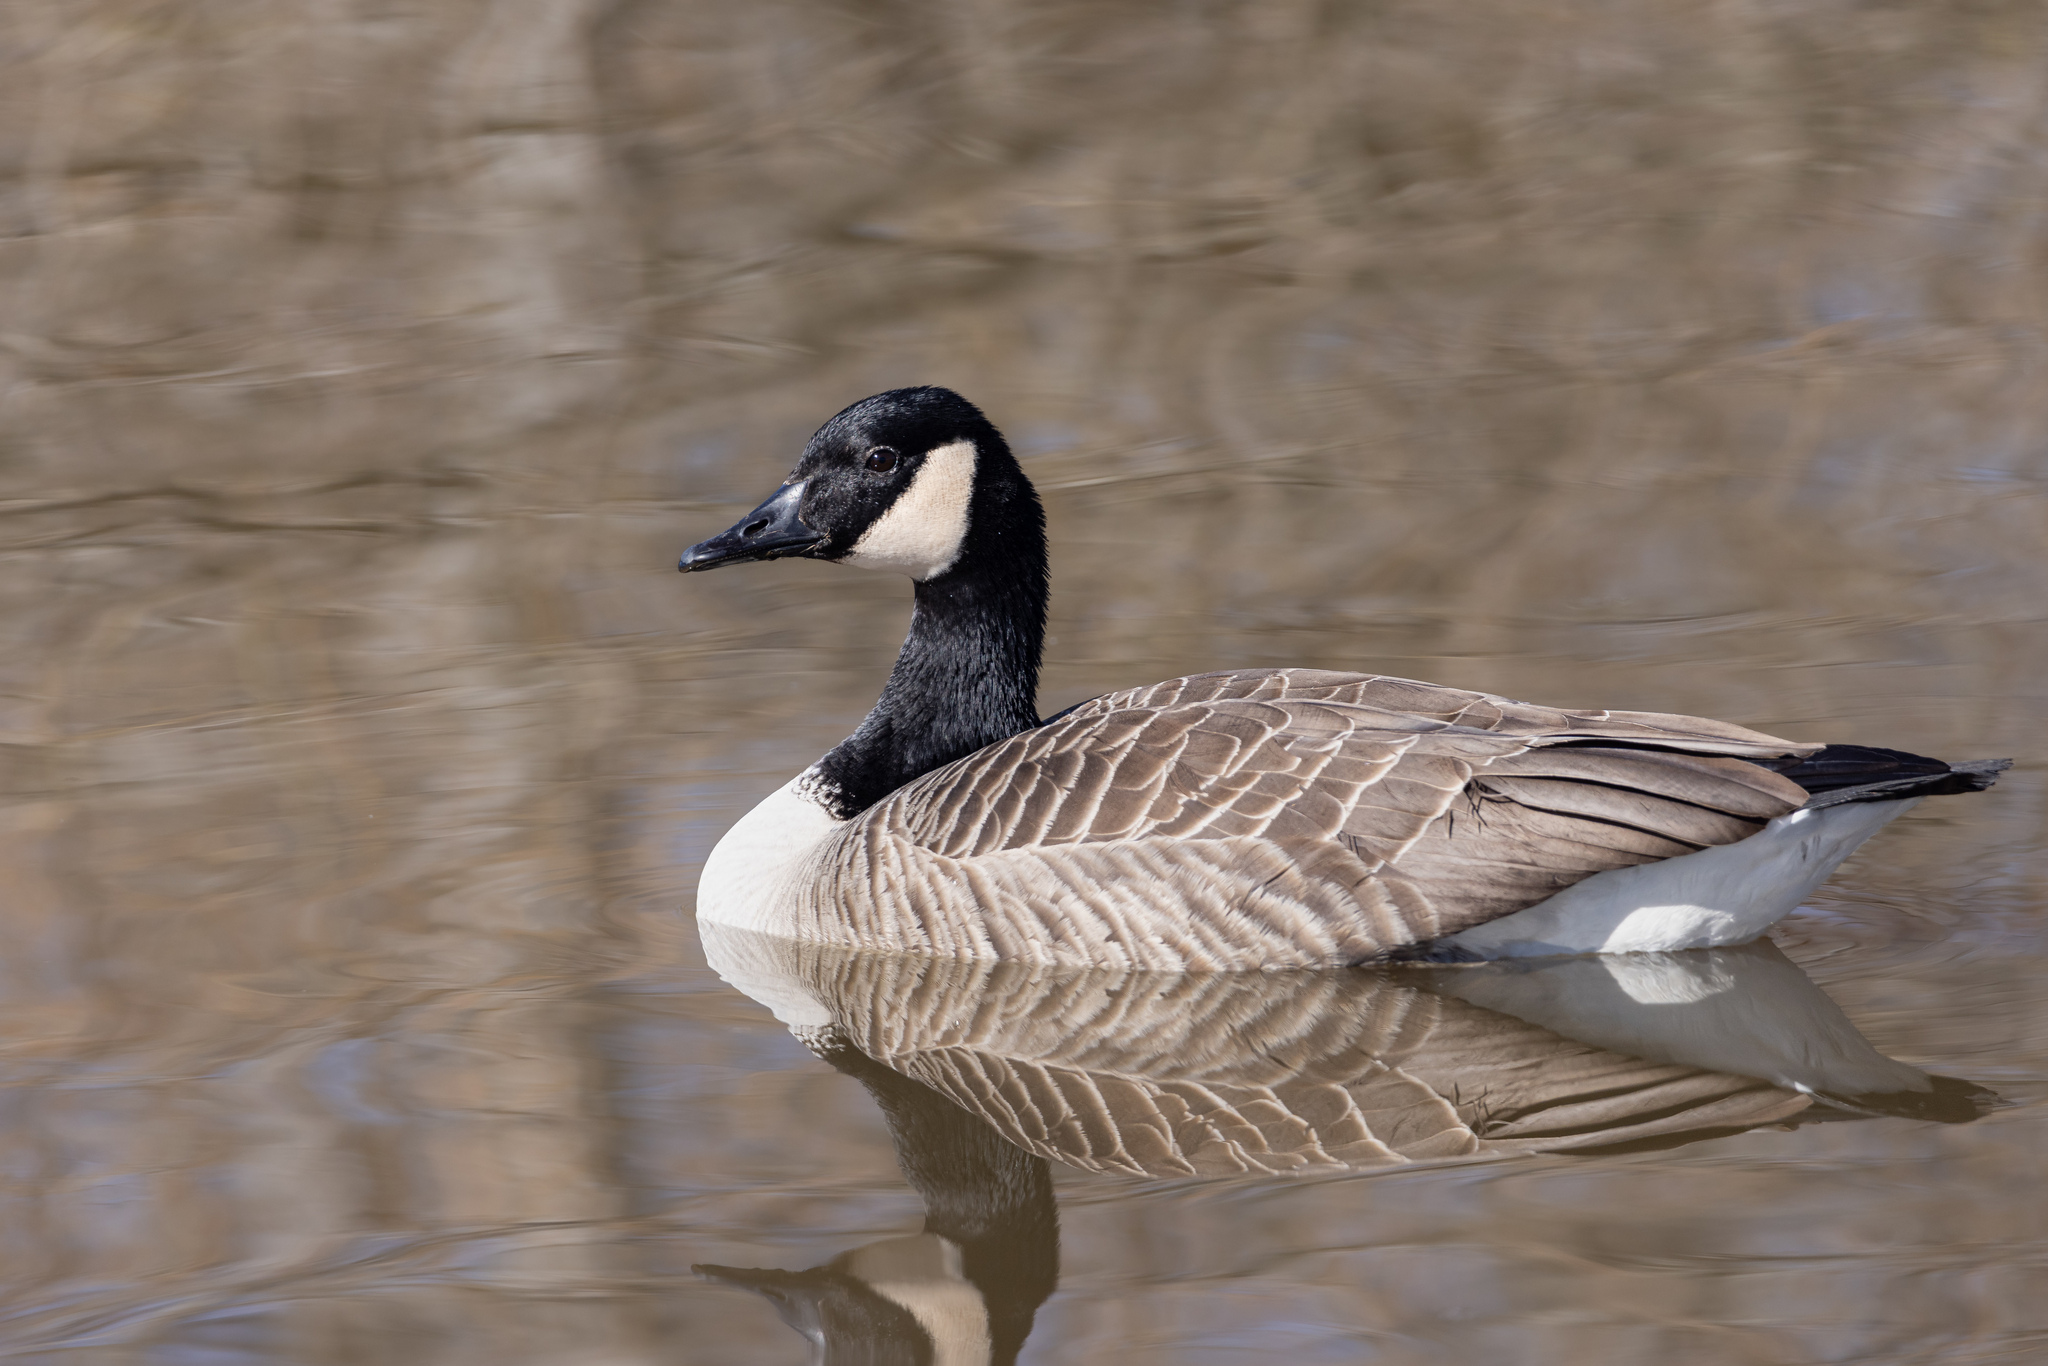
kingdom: Animalia
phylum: Chordata
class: Aves
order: Anseriformes
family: Anatidae
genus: Branta
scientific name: Branta canadensis
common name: Canada goose
